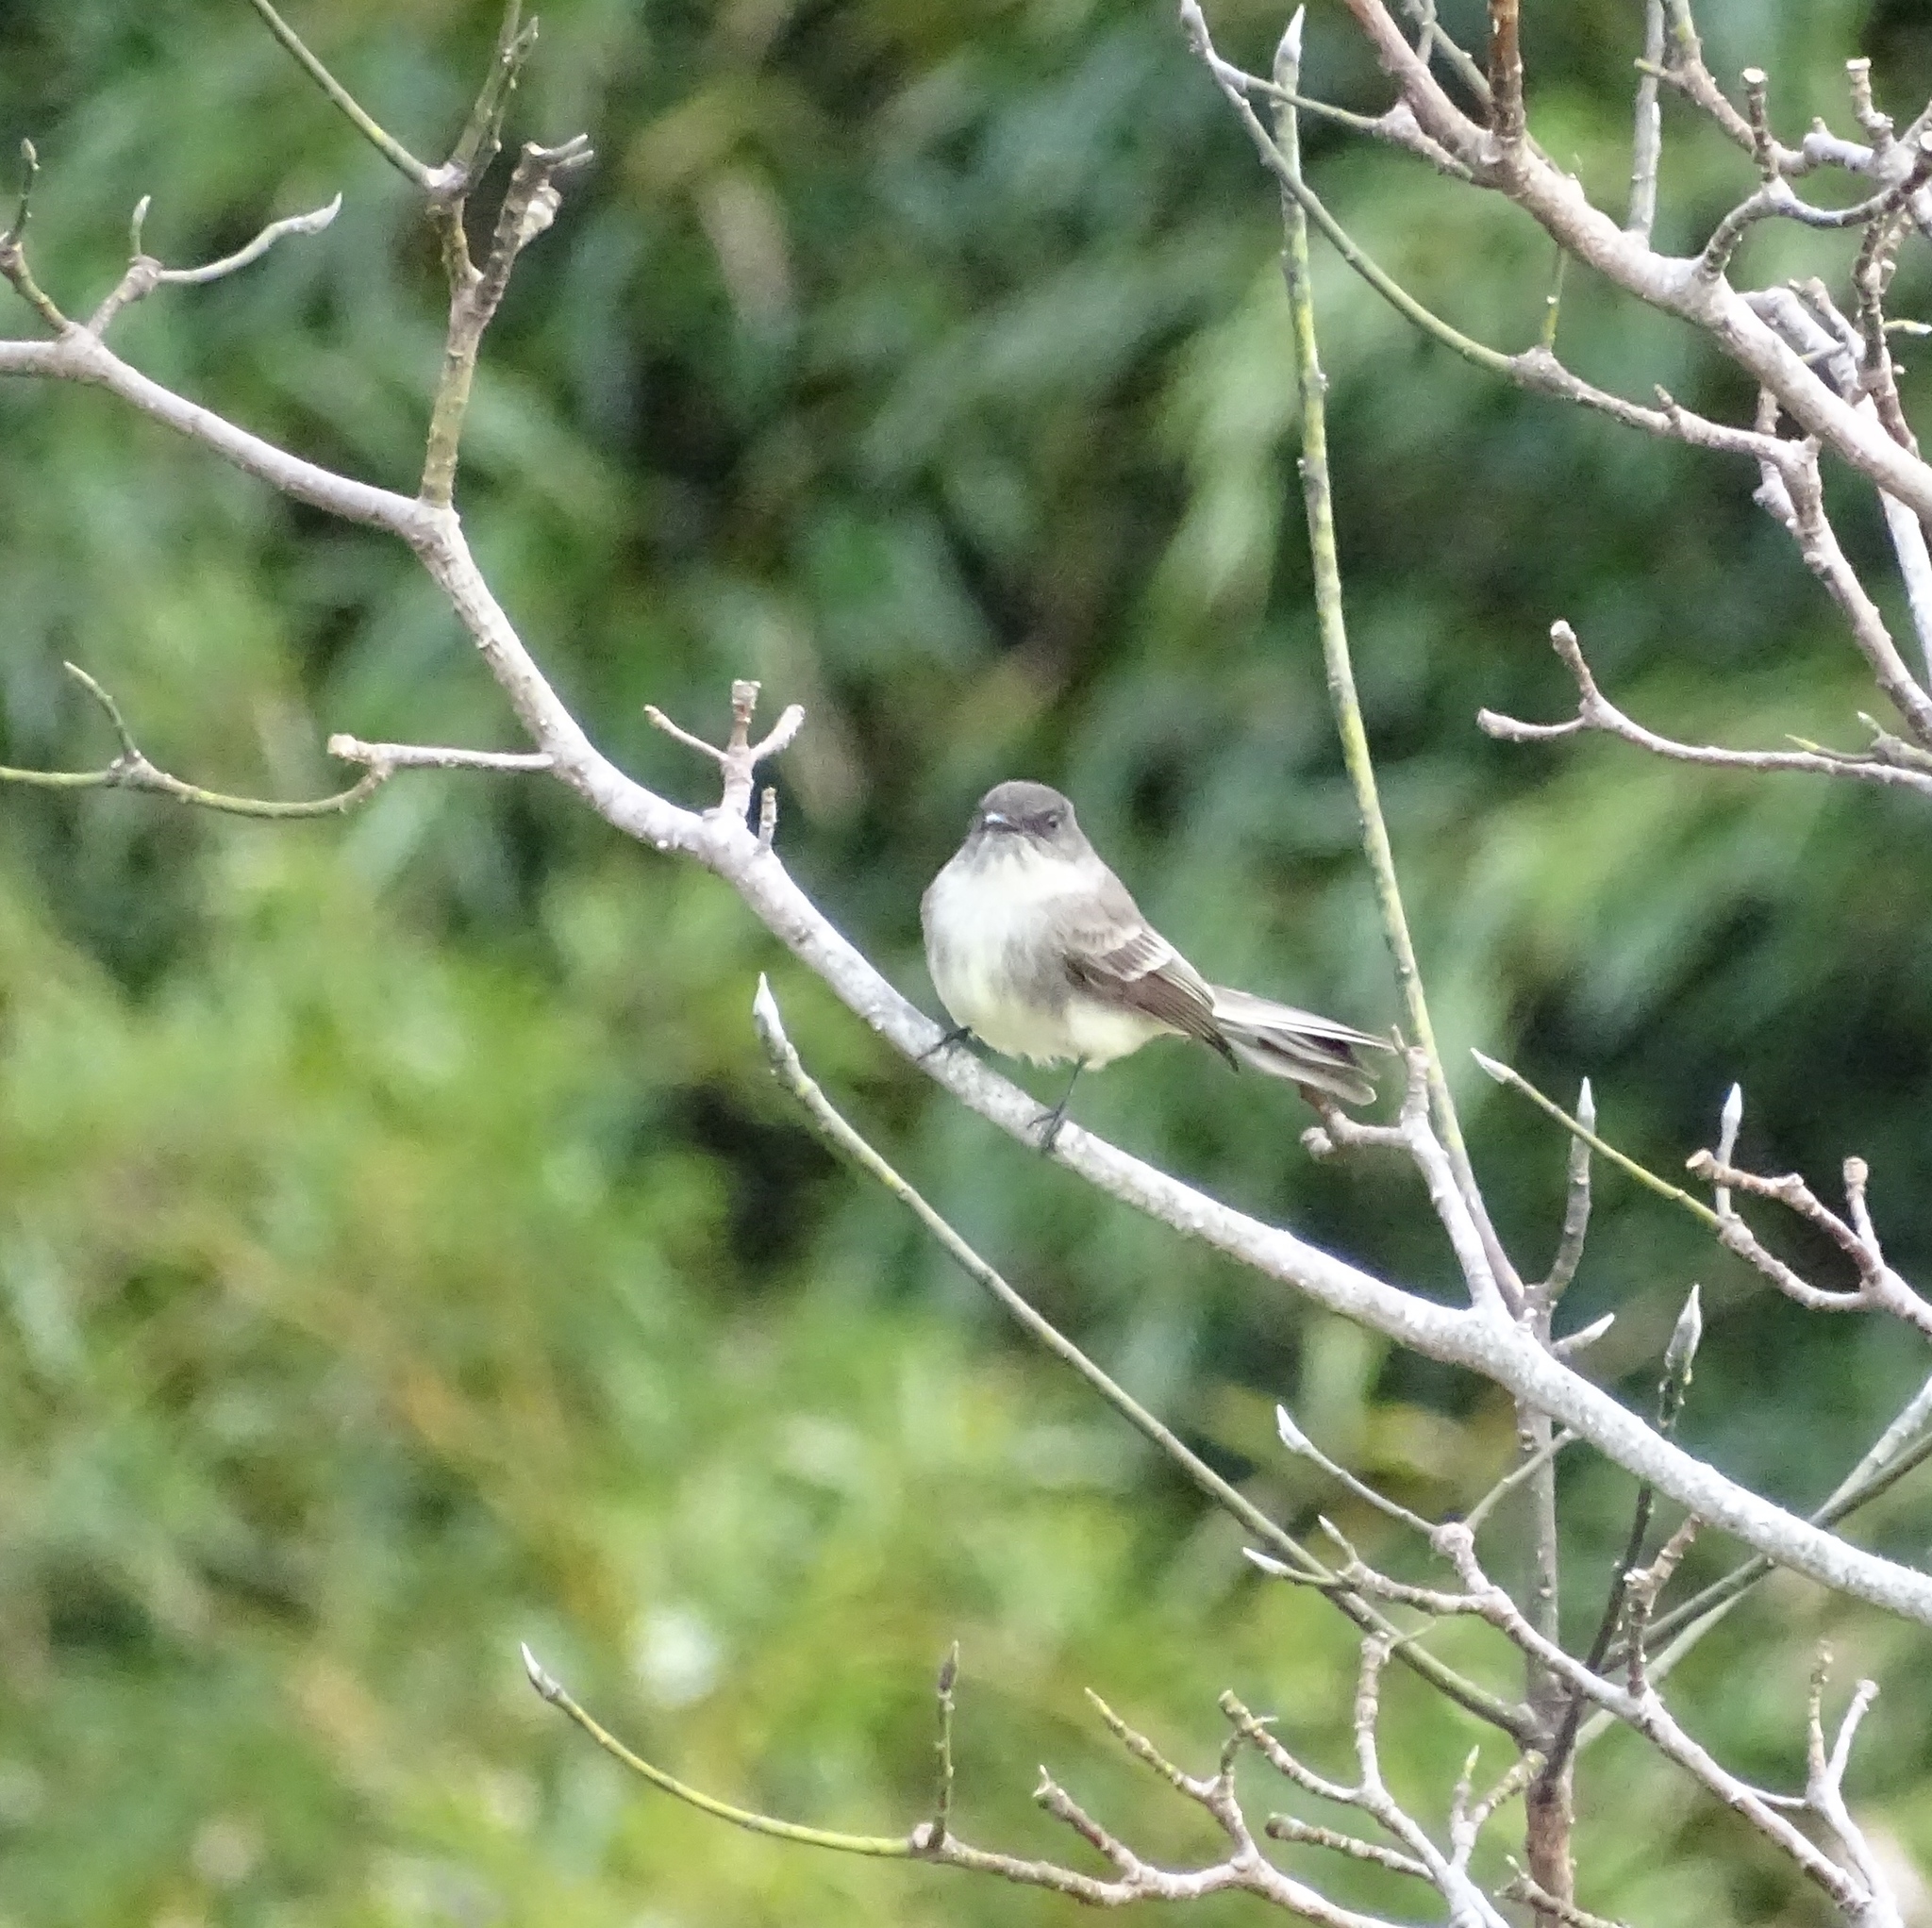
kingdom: Animalia
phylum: Chordata
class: Aves
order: Passeriformes
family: Tyrannidae
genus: Sayornis
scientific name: Sayornis phoebe
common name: Eastern phoebe
